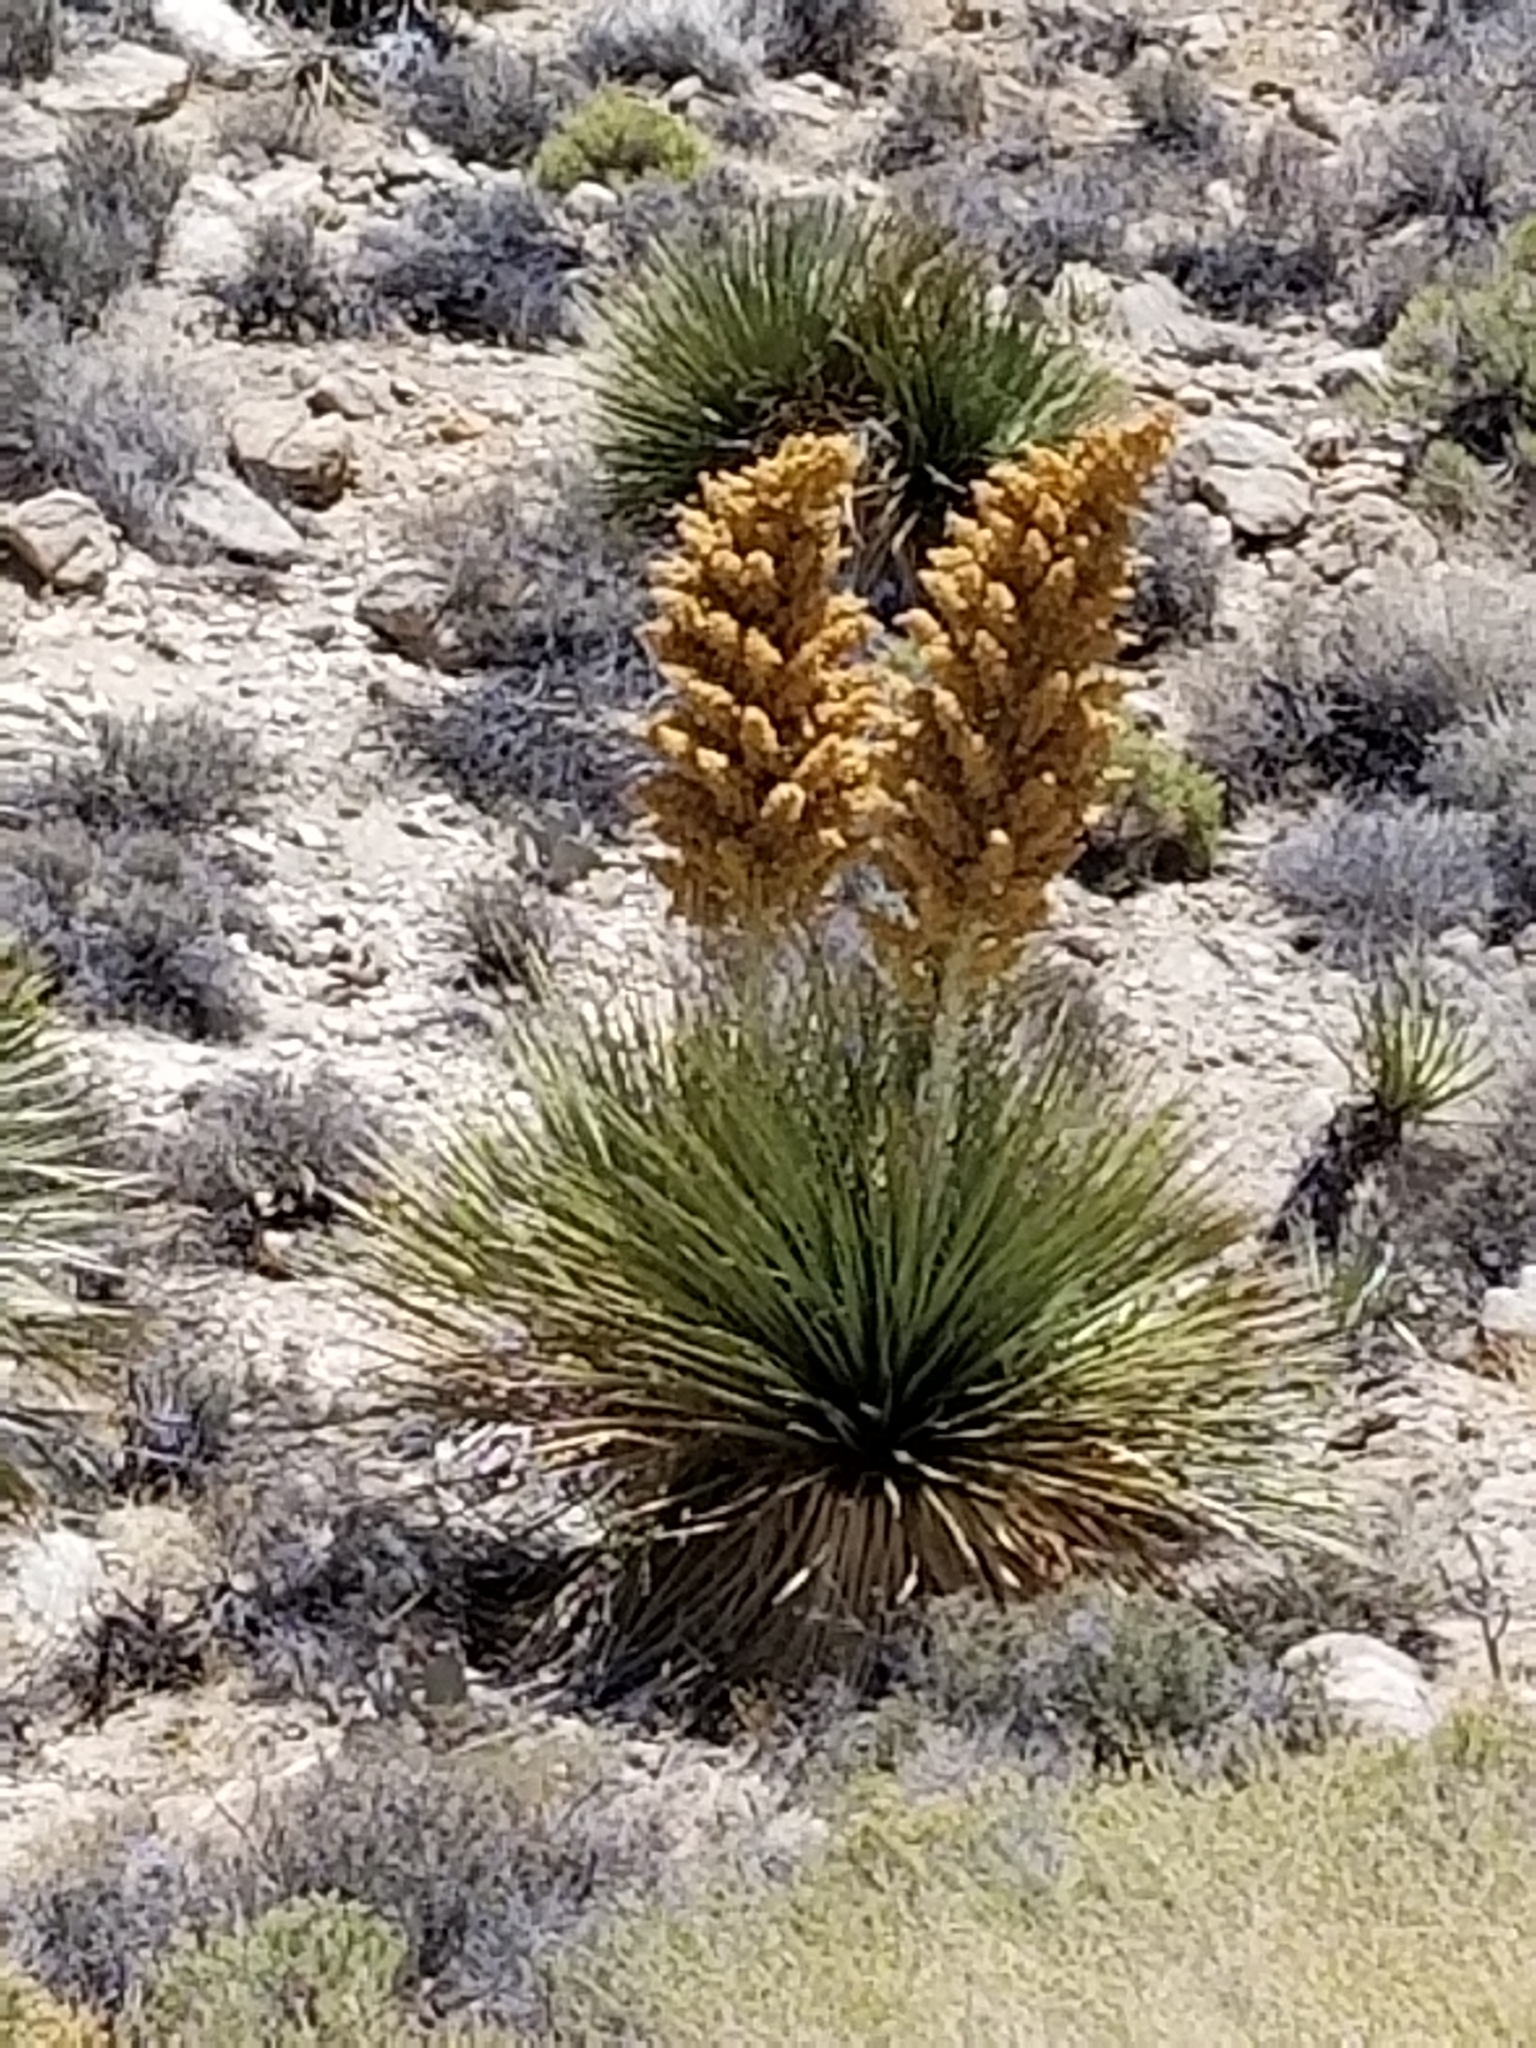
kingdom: Plantae
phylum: Tracheophyta
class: Liliopsida
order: Asparagales
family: Asparagaceae
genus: Nolina
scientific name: Nolina parryi
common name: Parry nolina
